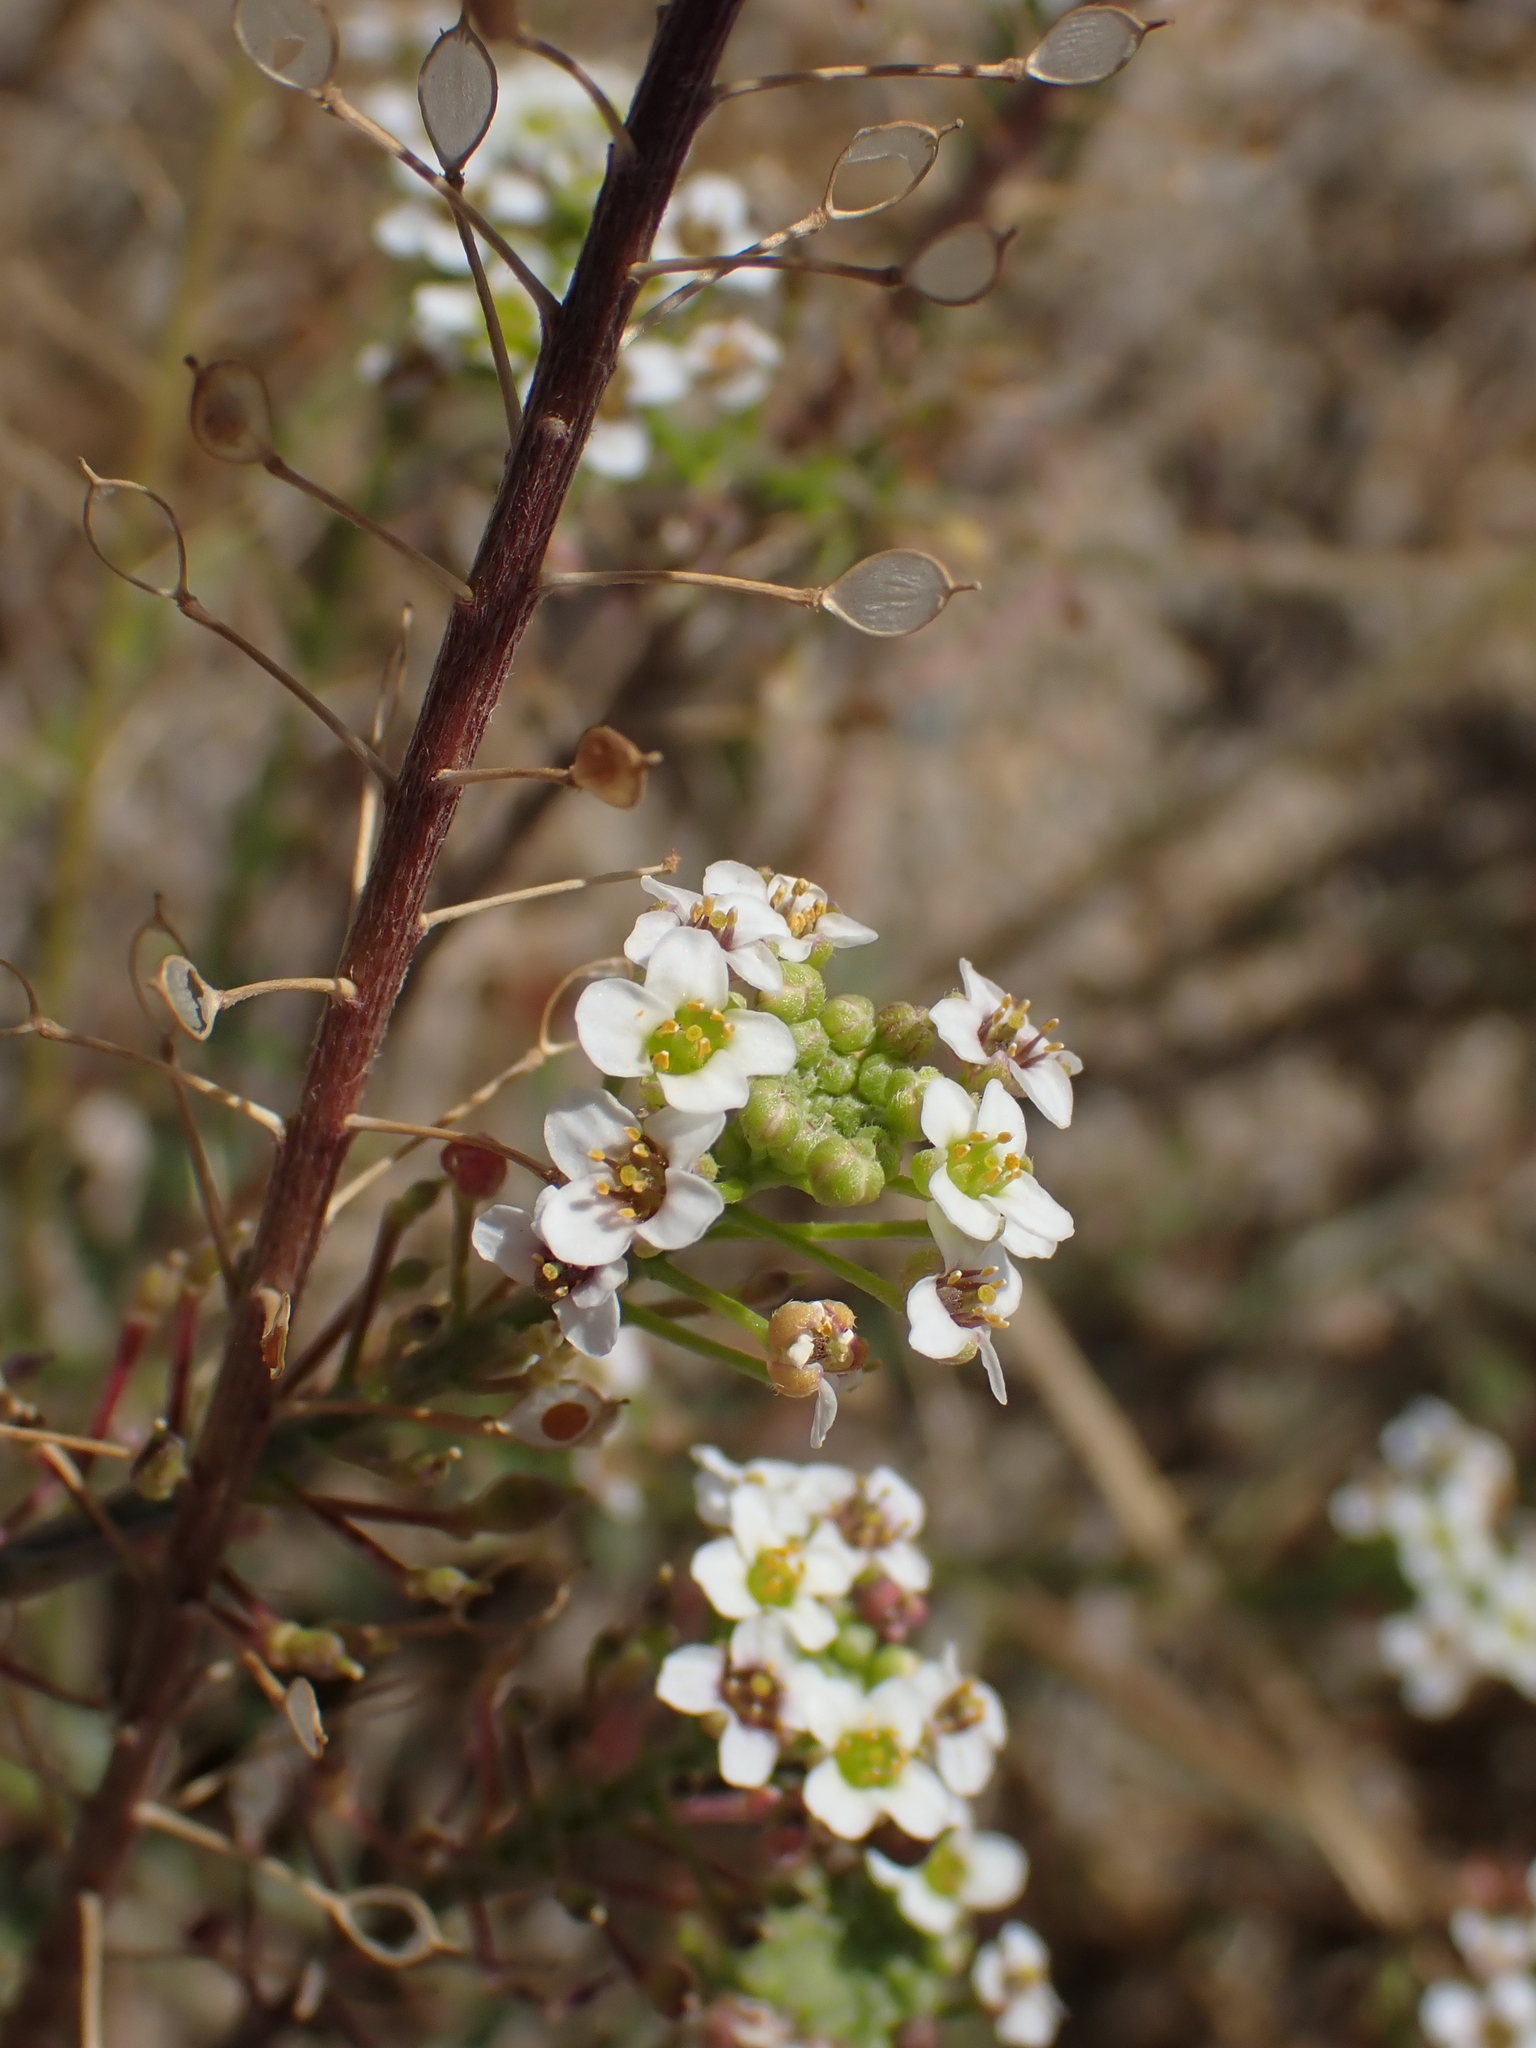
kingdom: Plantae
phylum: Tracheophyta
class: Magnoliopsida
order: Brassicales
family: Brassicaceae
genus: Lobularia
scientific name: Lobularia maritima
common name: Sweet alison
